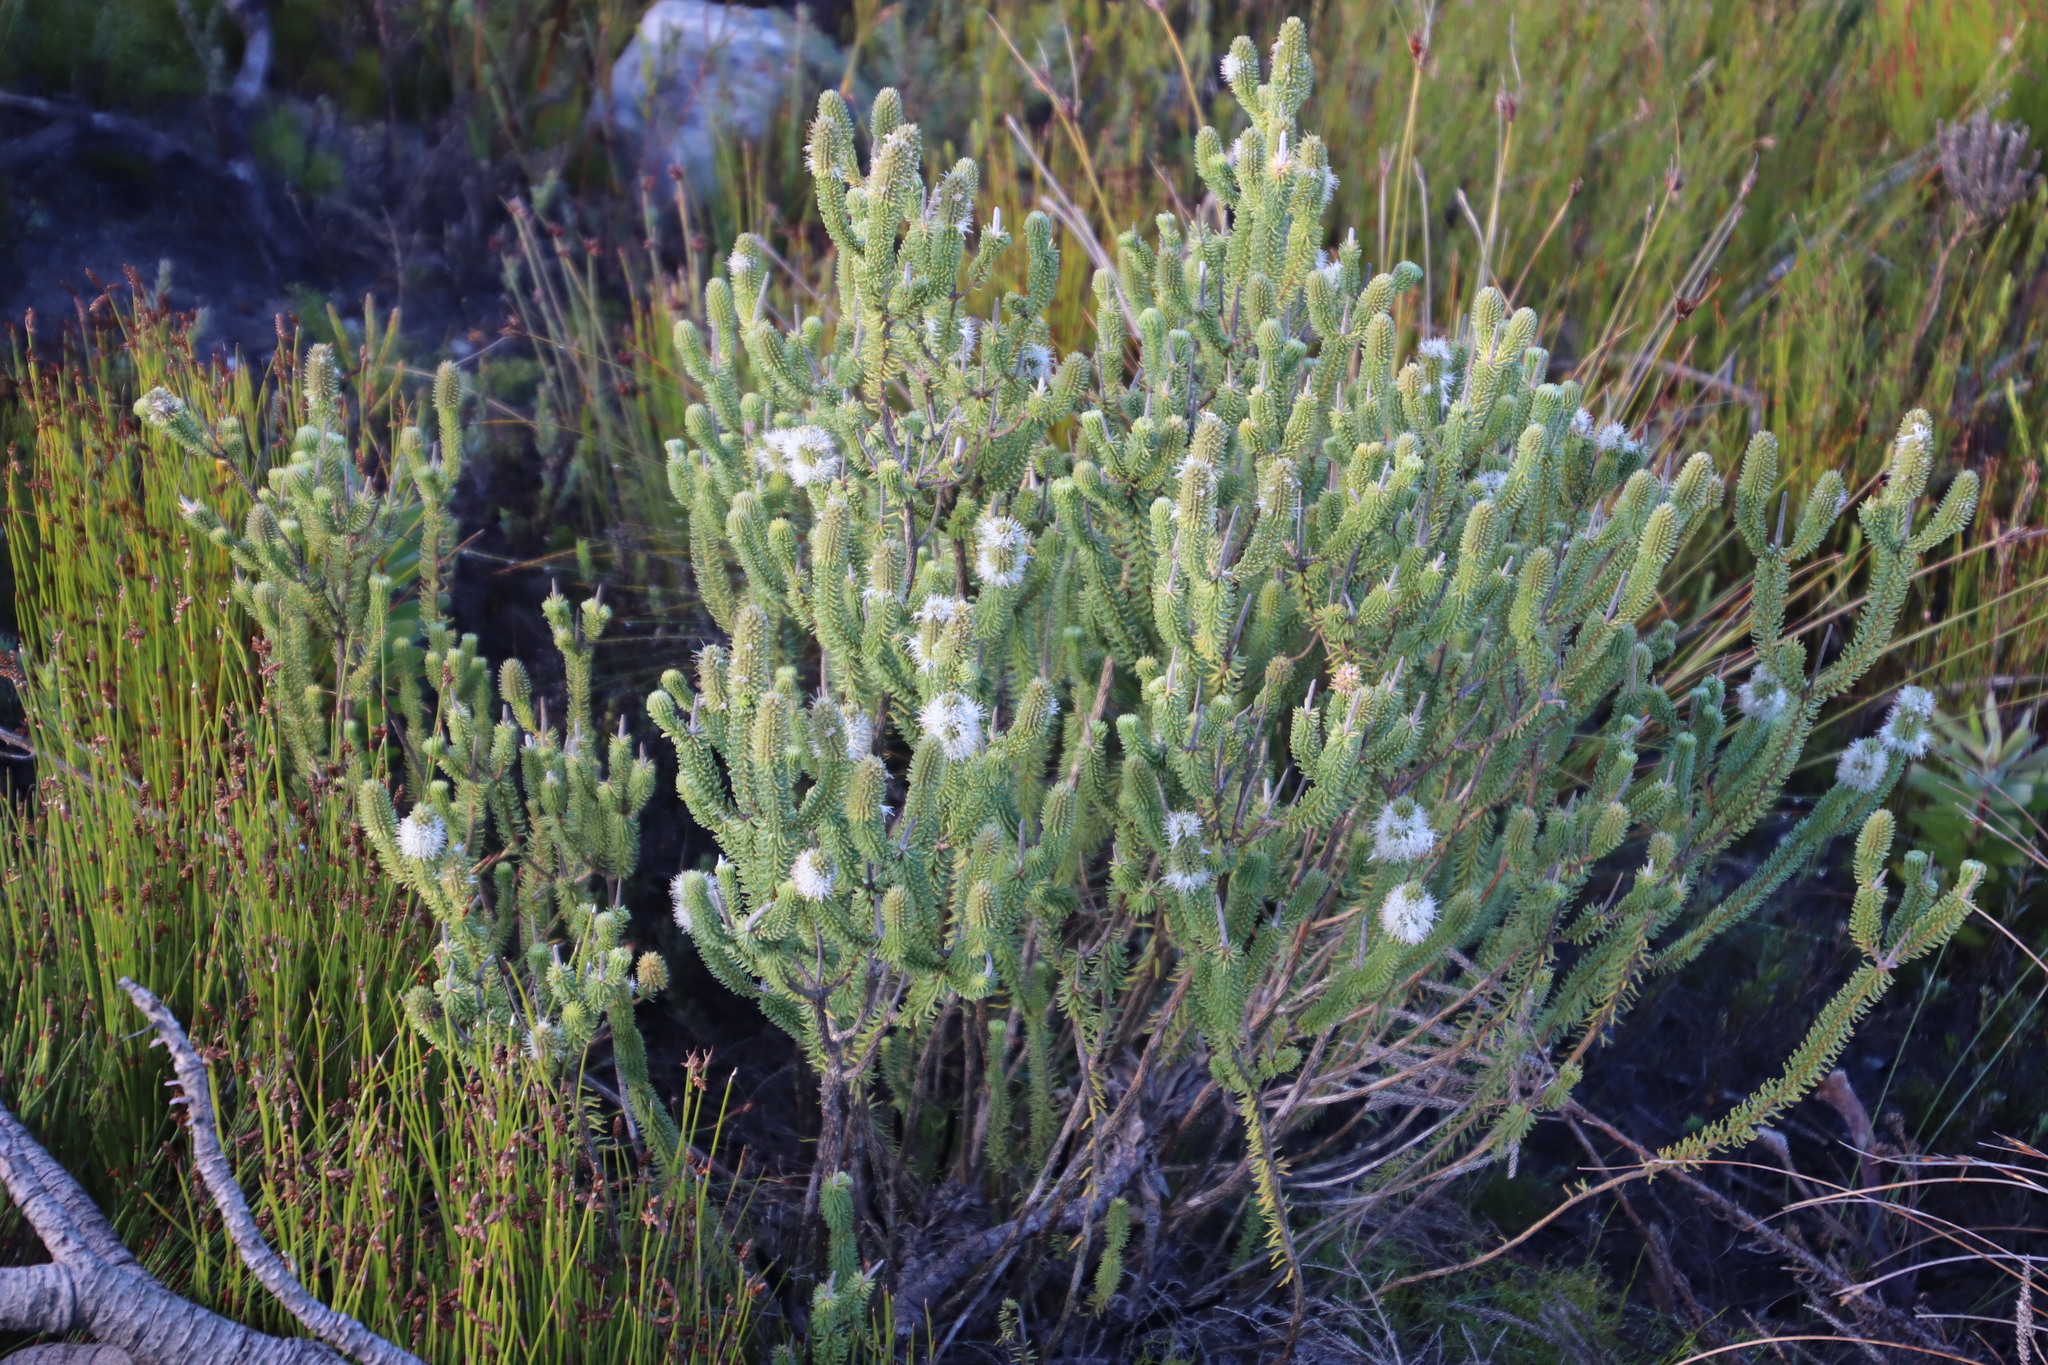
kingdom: Plantae
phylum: Tracheophyta
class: Magnoliopsida
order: Lamiales
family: Stilbaceae
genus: Stilbe
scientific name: Stilbe vestita
